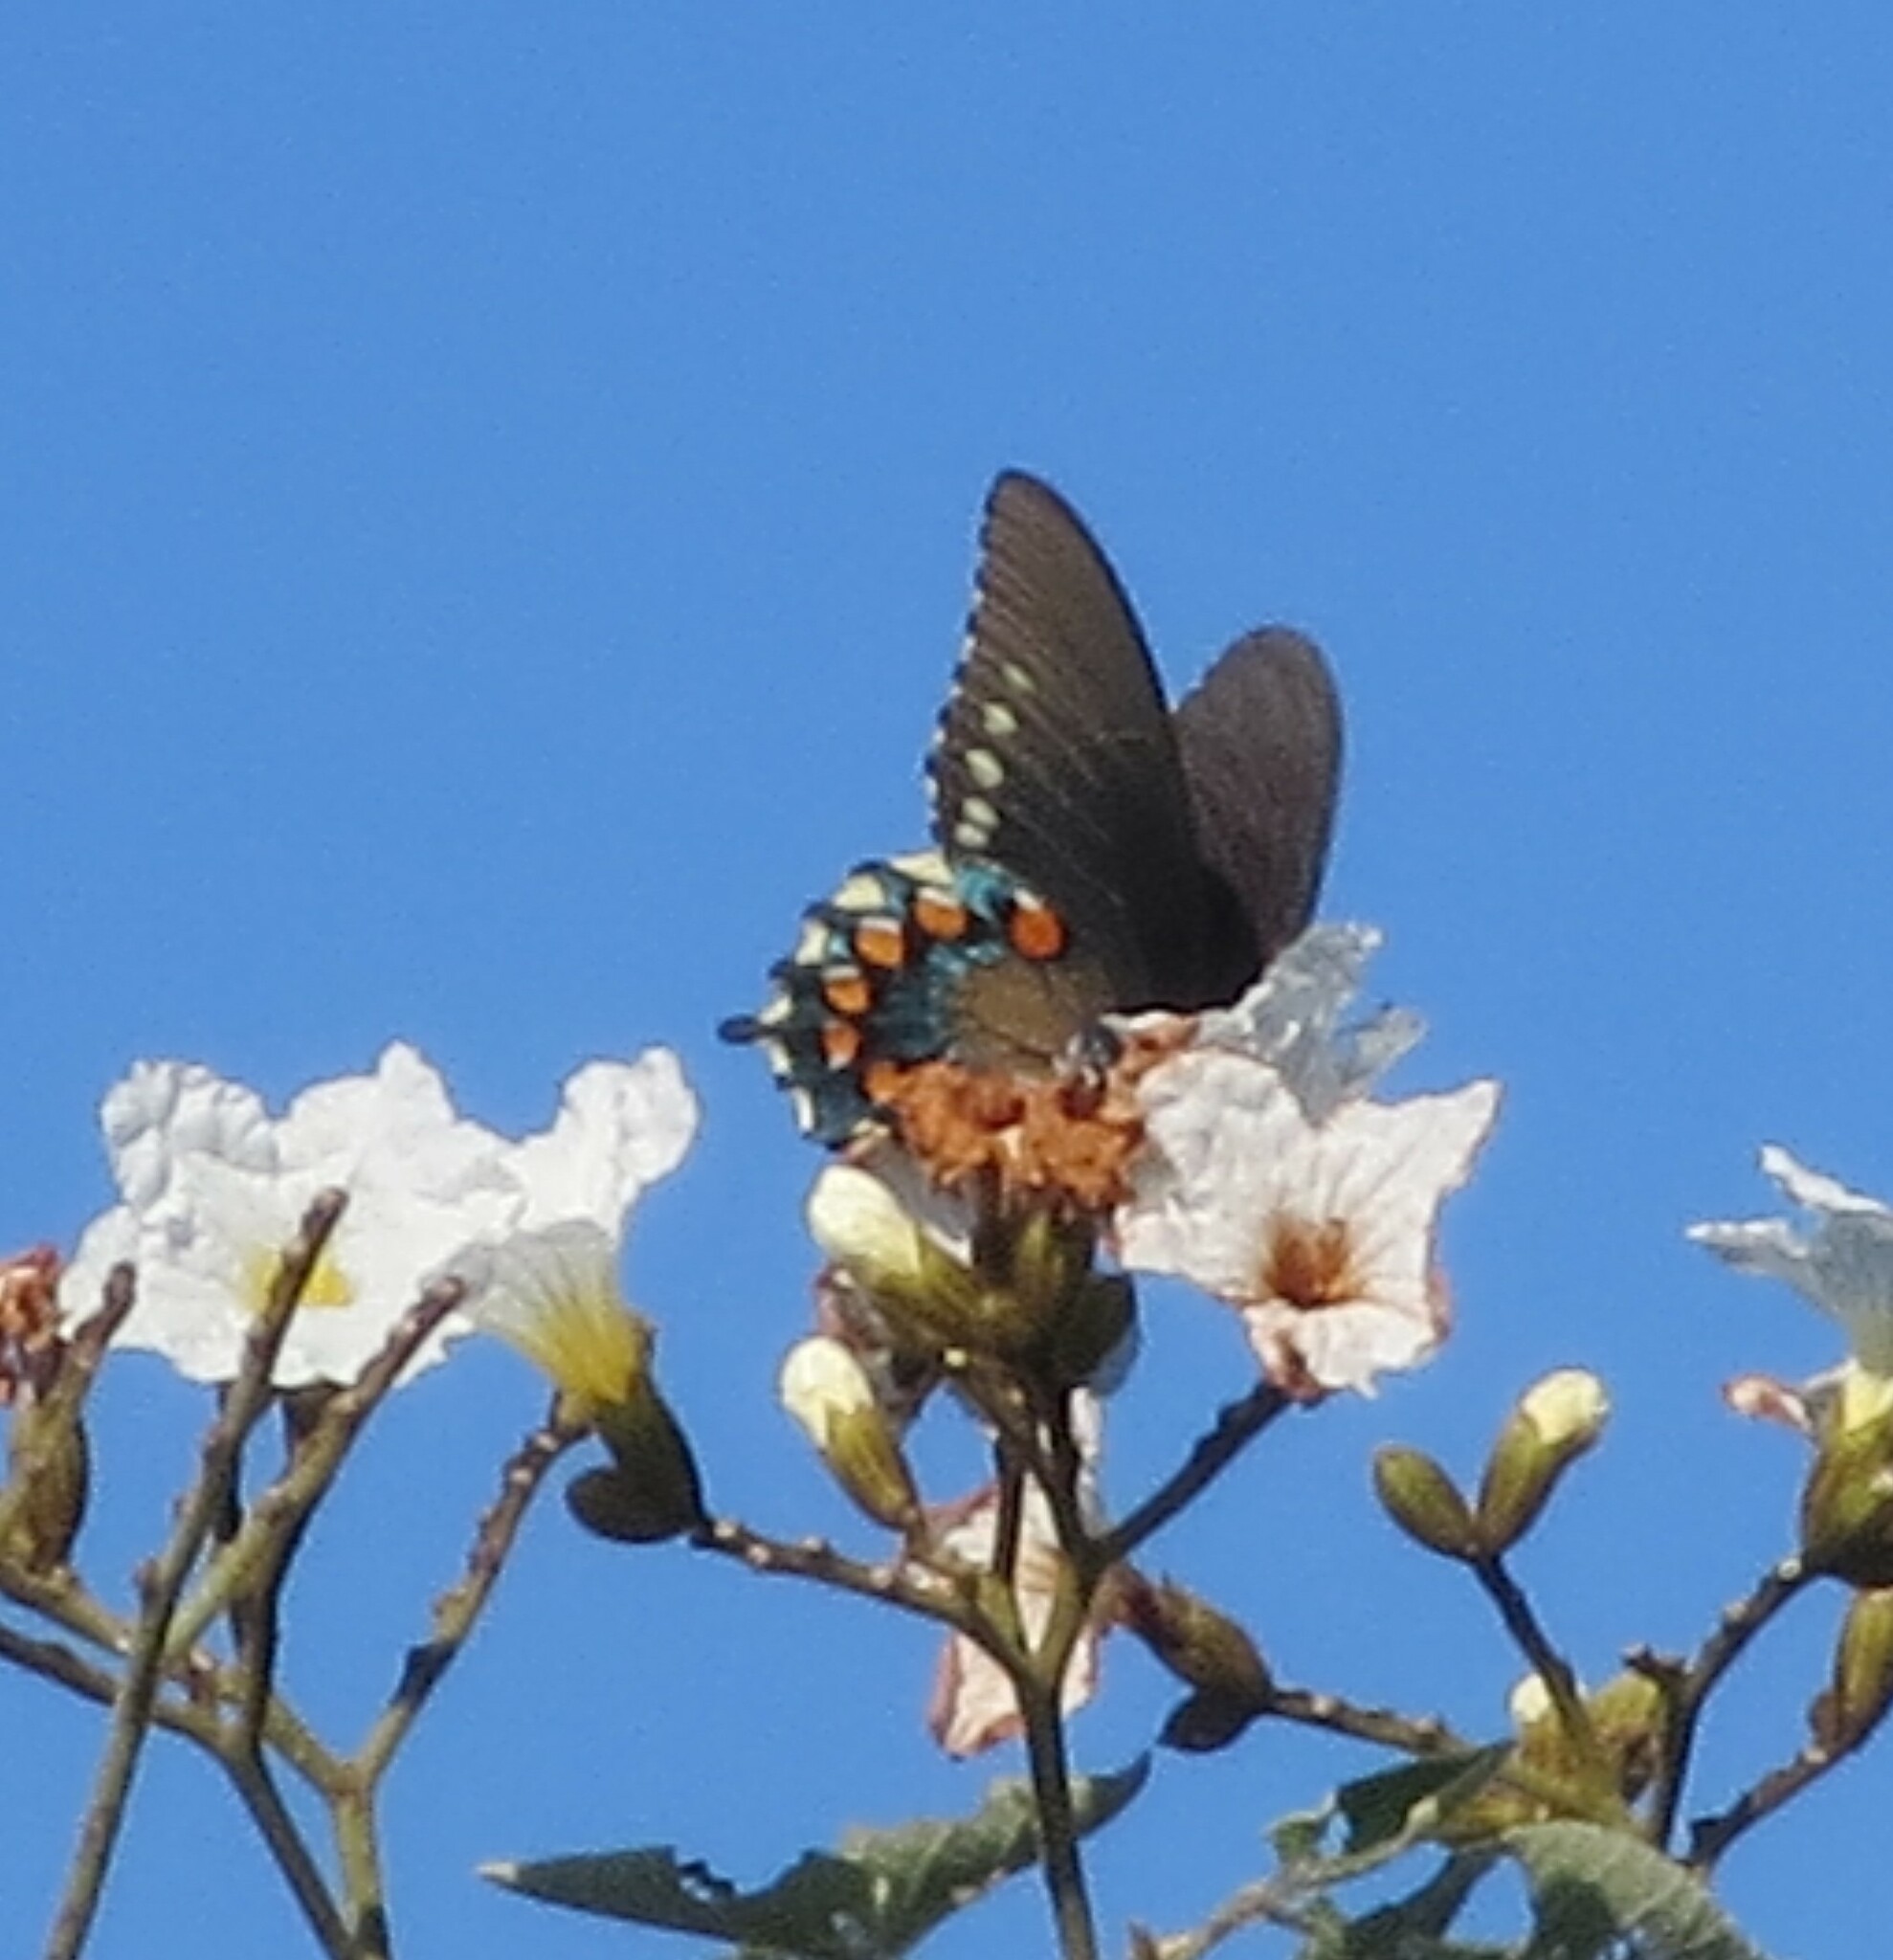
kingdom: Animalia
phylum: Arthropoda
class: Insecta
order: Lepidoptera
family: Papilionidae
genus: Battus
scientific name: Battus philenor
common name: Pipevine swallowtail
